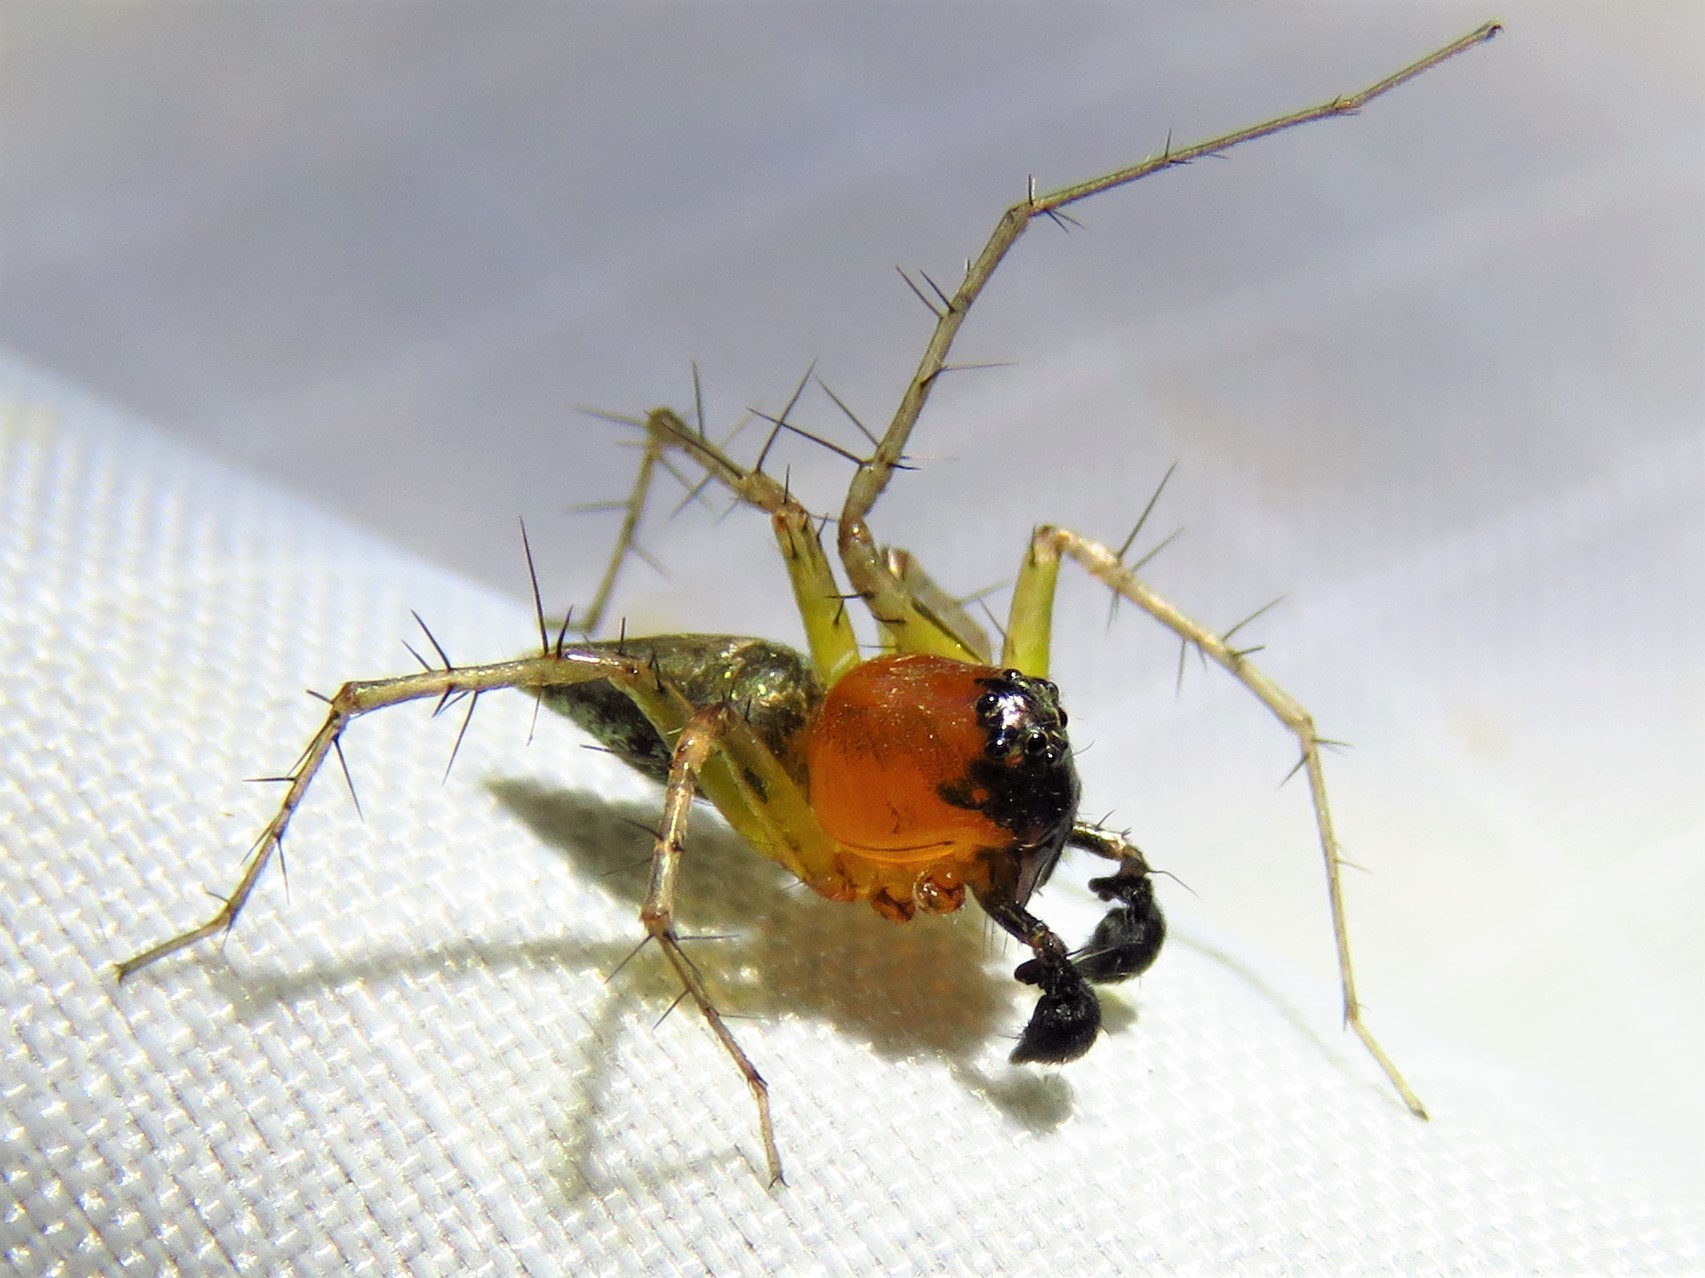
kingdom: Animalia
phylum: Arthropoda
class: Arachnida
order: Araneae
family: Oxyopidae
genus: Oxyopes
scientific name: Oxyopes salticus
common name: Lynx spiders
